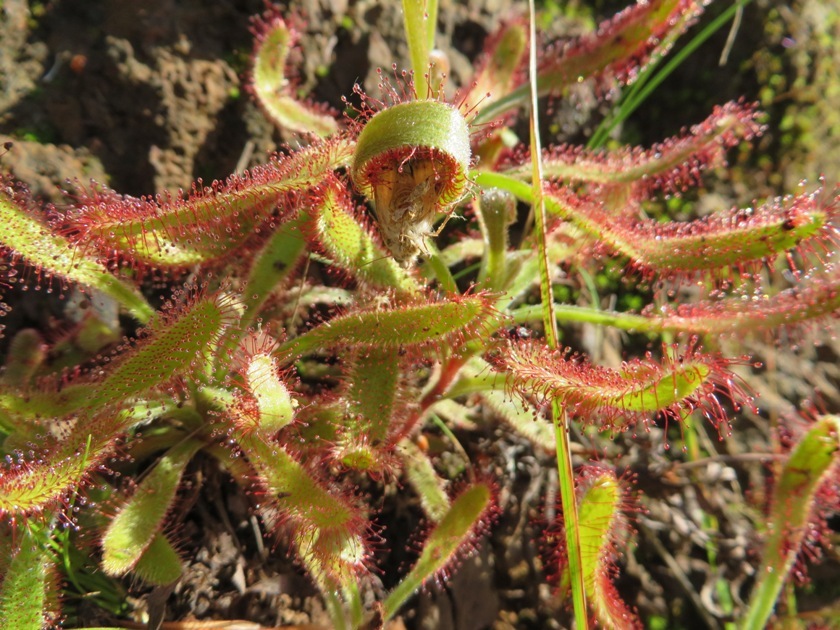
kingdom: Plantae
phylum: Tracheophyta
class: Magnoliopsida
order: Caryophyllales
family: Droseraceae
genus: Drosera
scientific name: Drosera hilaris
